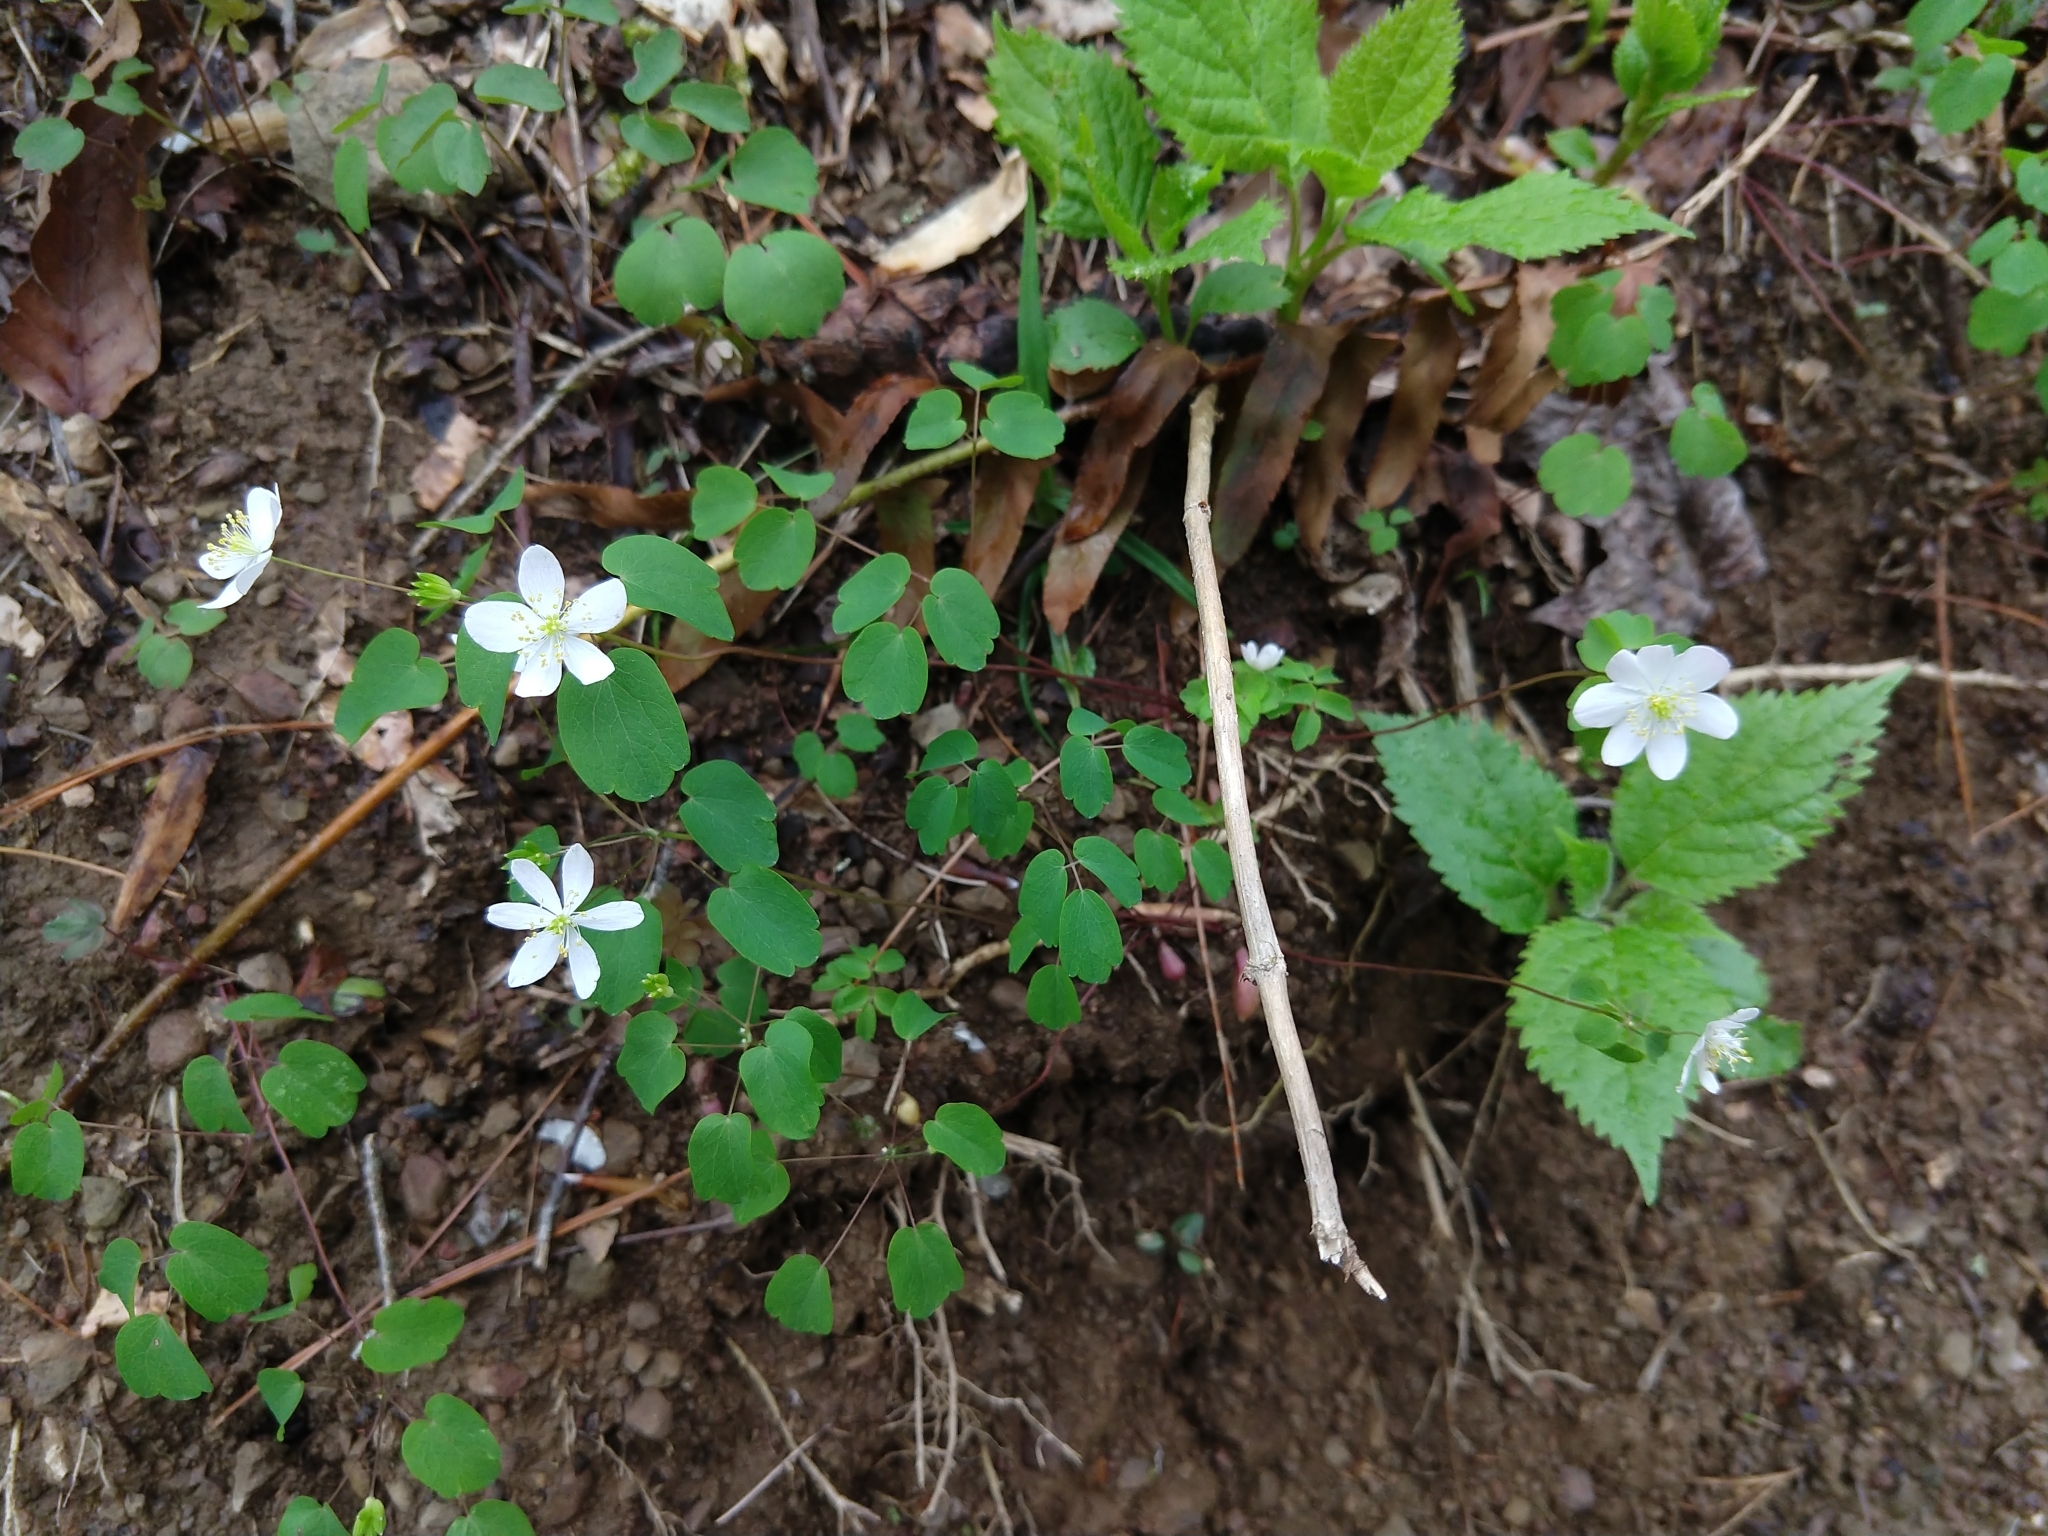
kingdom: Plantae
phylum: Tracheophyta
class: Magnoliopsida
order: Ranunculales
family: Ranunculaceae
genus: Thalictrum
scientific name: Thalictrum thalictroides
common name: Rue-anemone
